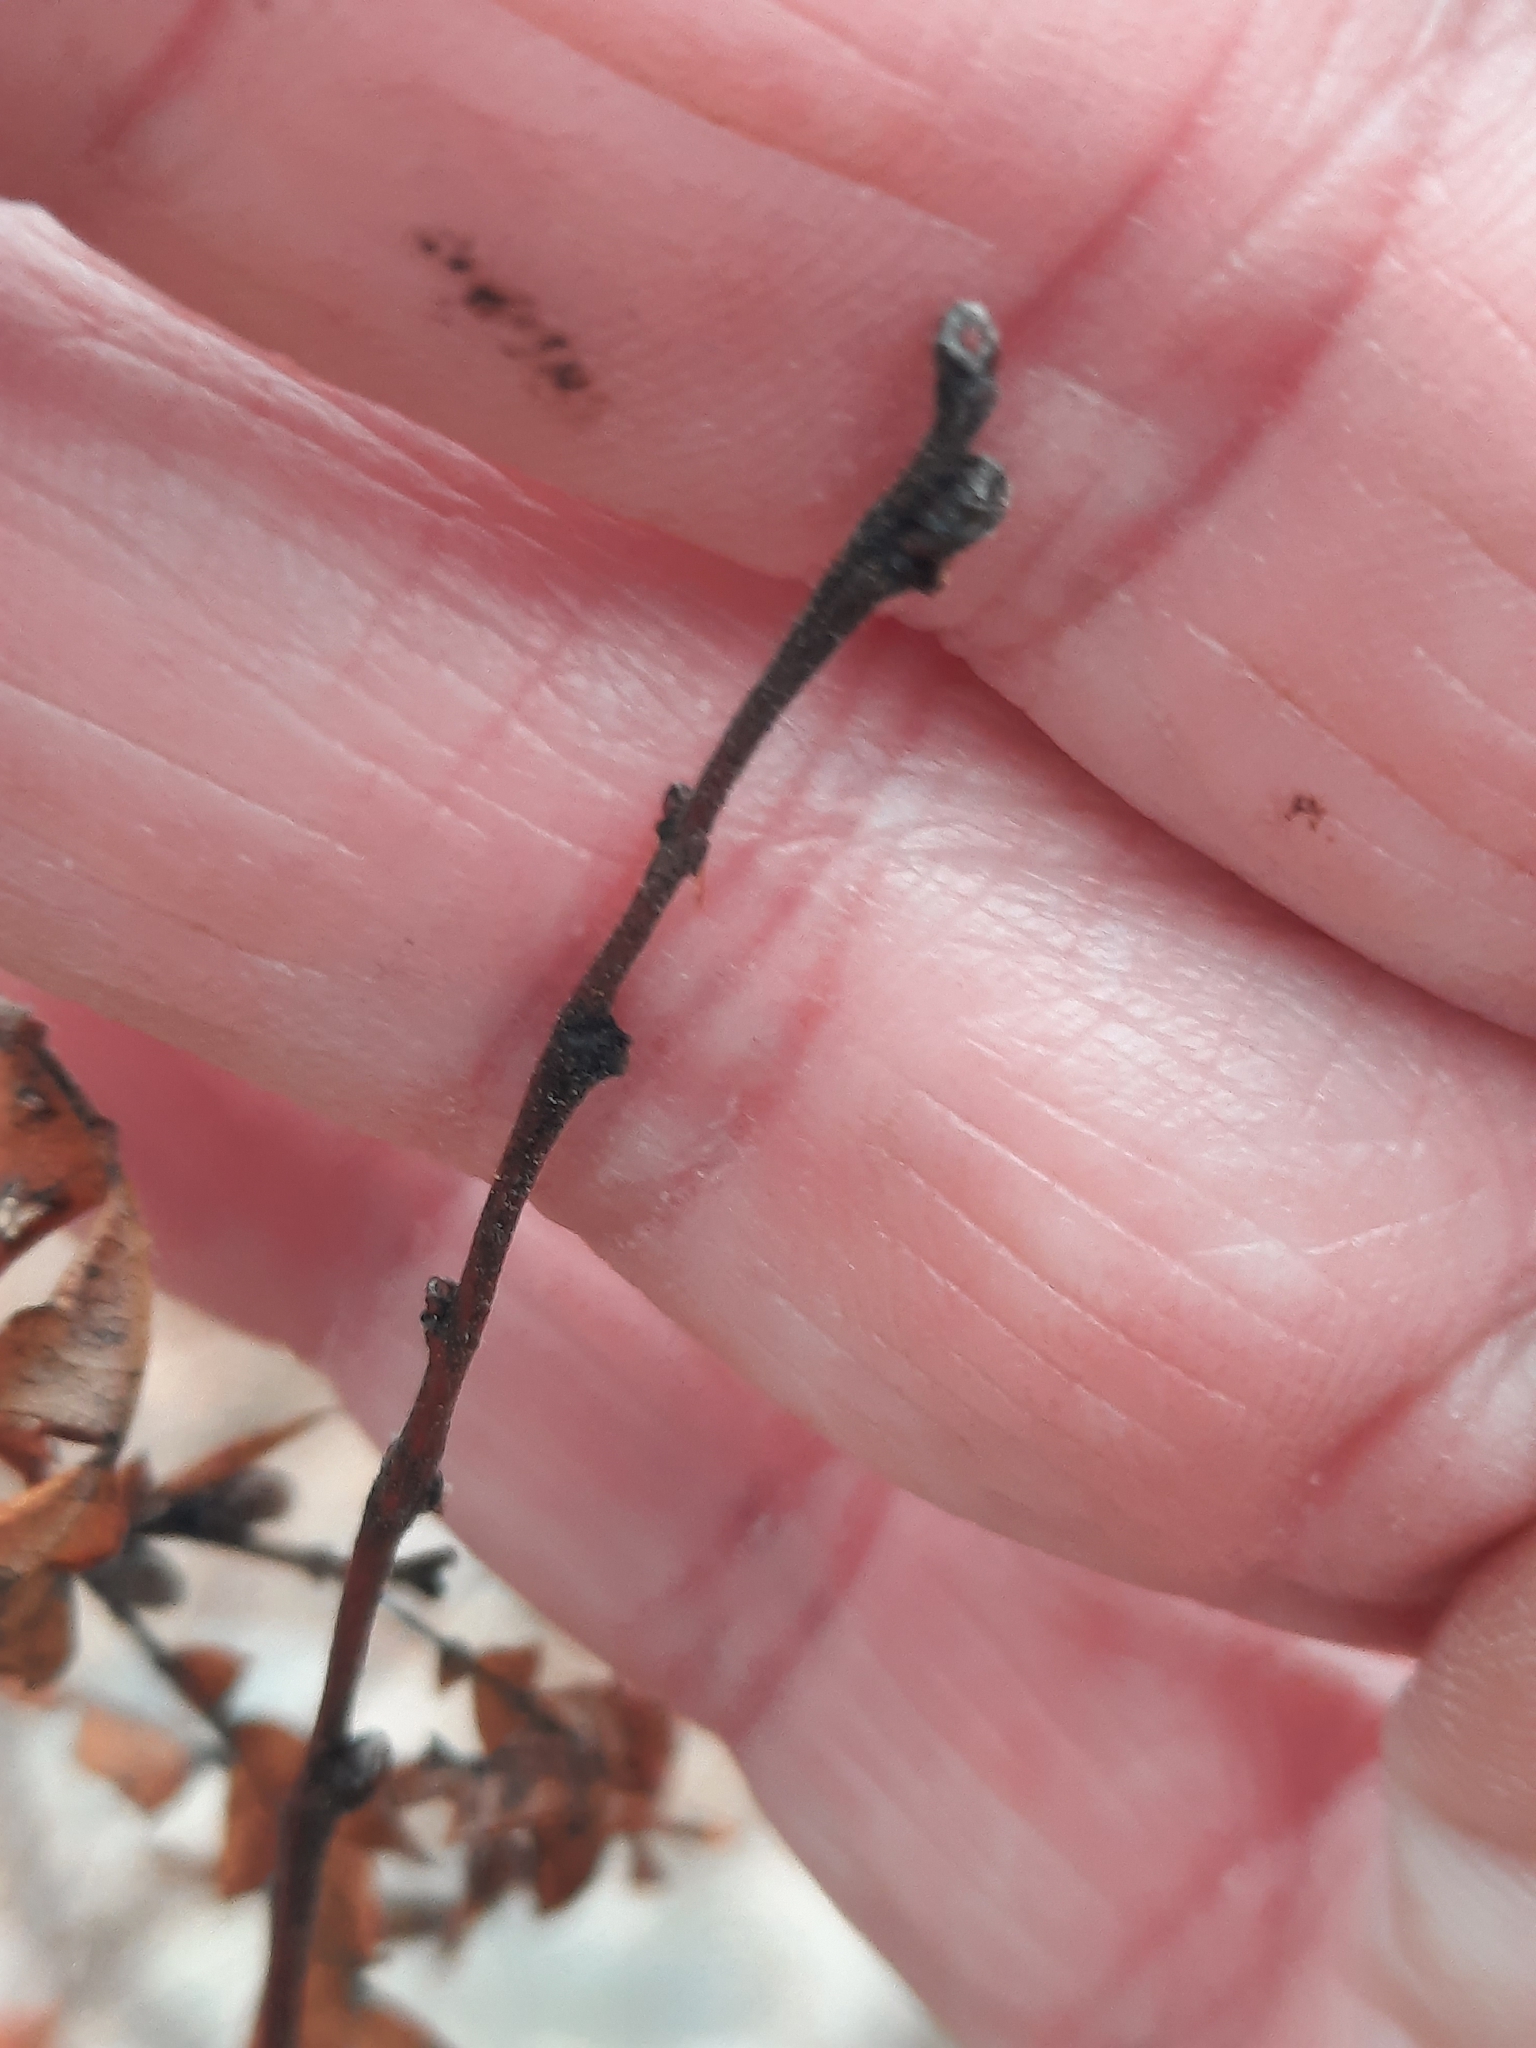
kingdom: Plantae
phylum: Tracheophyta
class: Magnoliopsida
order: Fagales
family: Myricaceae
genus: Comptonia
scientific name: Comptonia peregrina
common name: Sweet-fern
